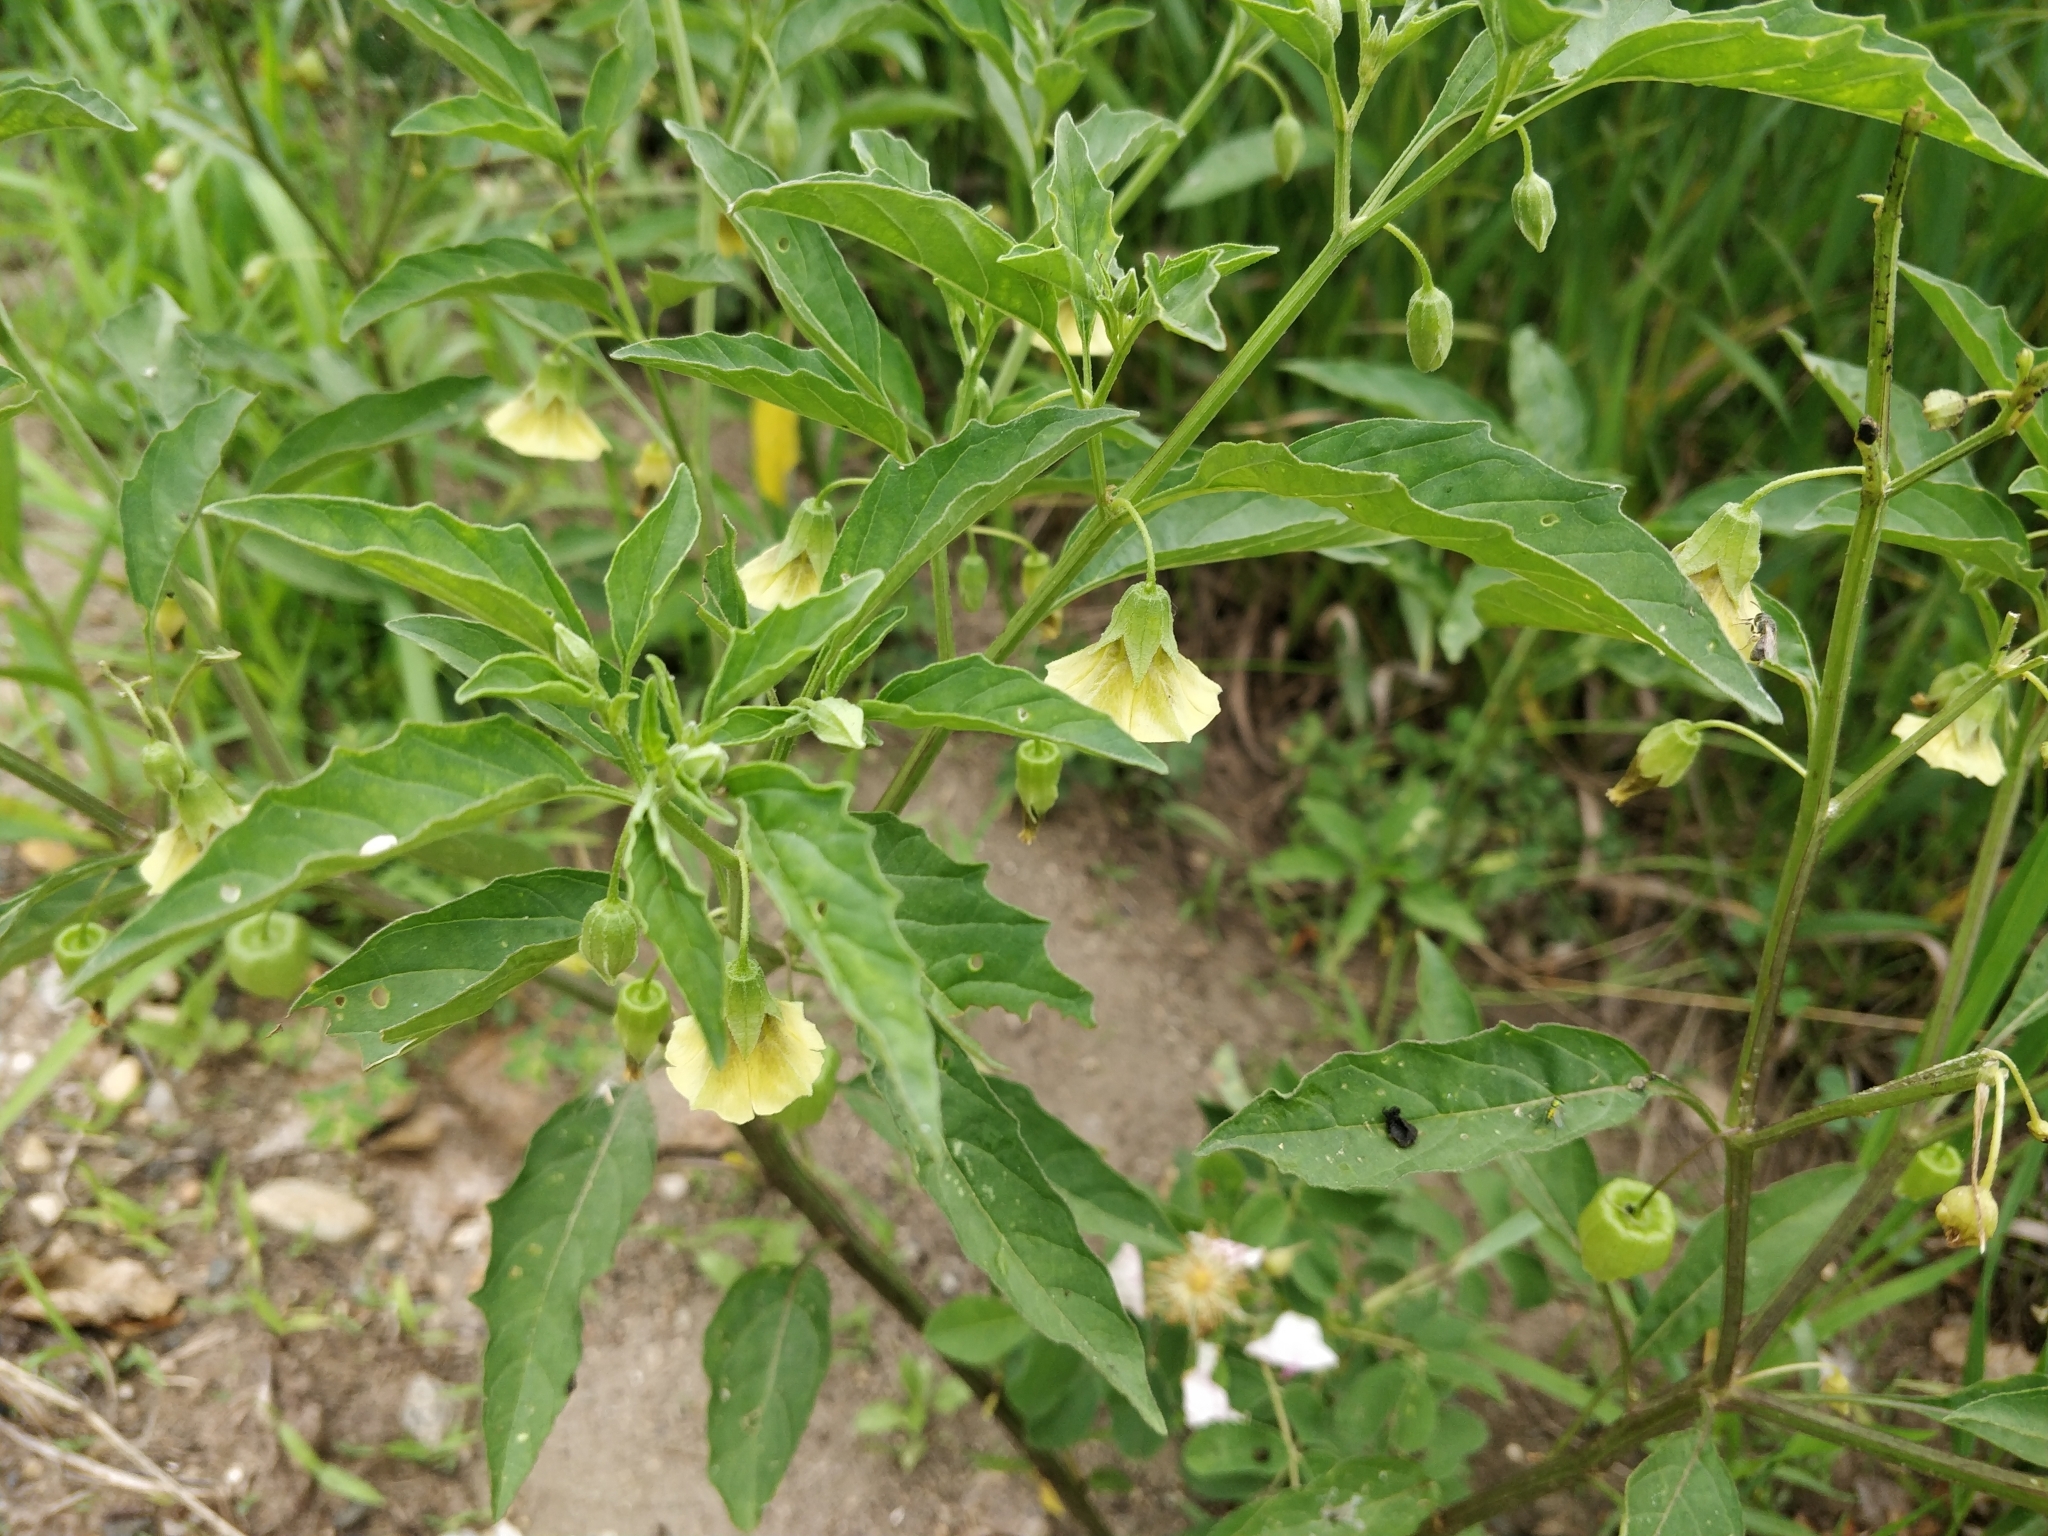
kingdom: Plantae
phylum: Tracheophyta
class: Magnoliopsida
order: Solanales
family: Solanaceae
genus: Physalis
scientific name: Physalis longifolia
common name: Common ground-cherry
